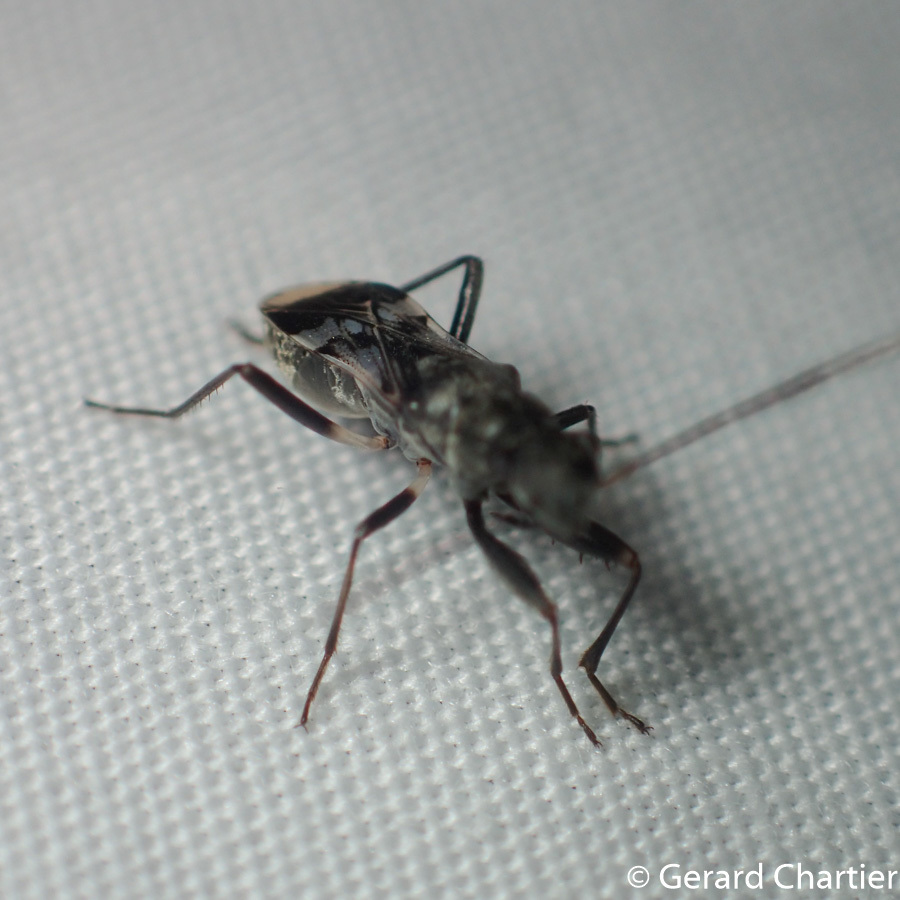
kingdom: Animalia
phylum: Arthropoda
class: Insecta
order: Hemiptera
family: Rhyparochromidae
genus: Eucosmetus
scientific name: Eucosmetus formosus
